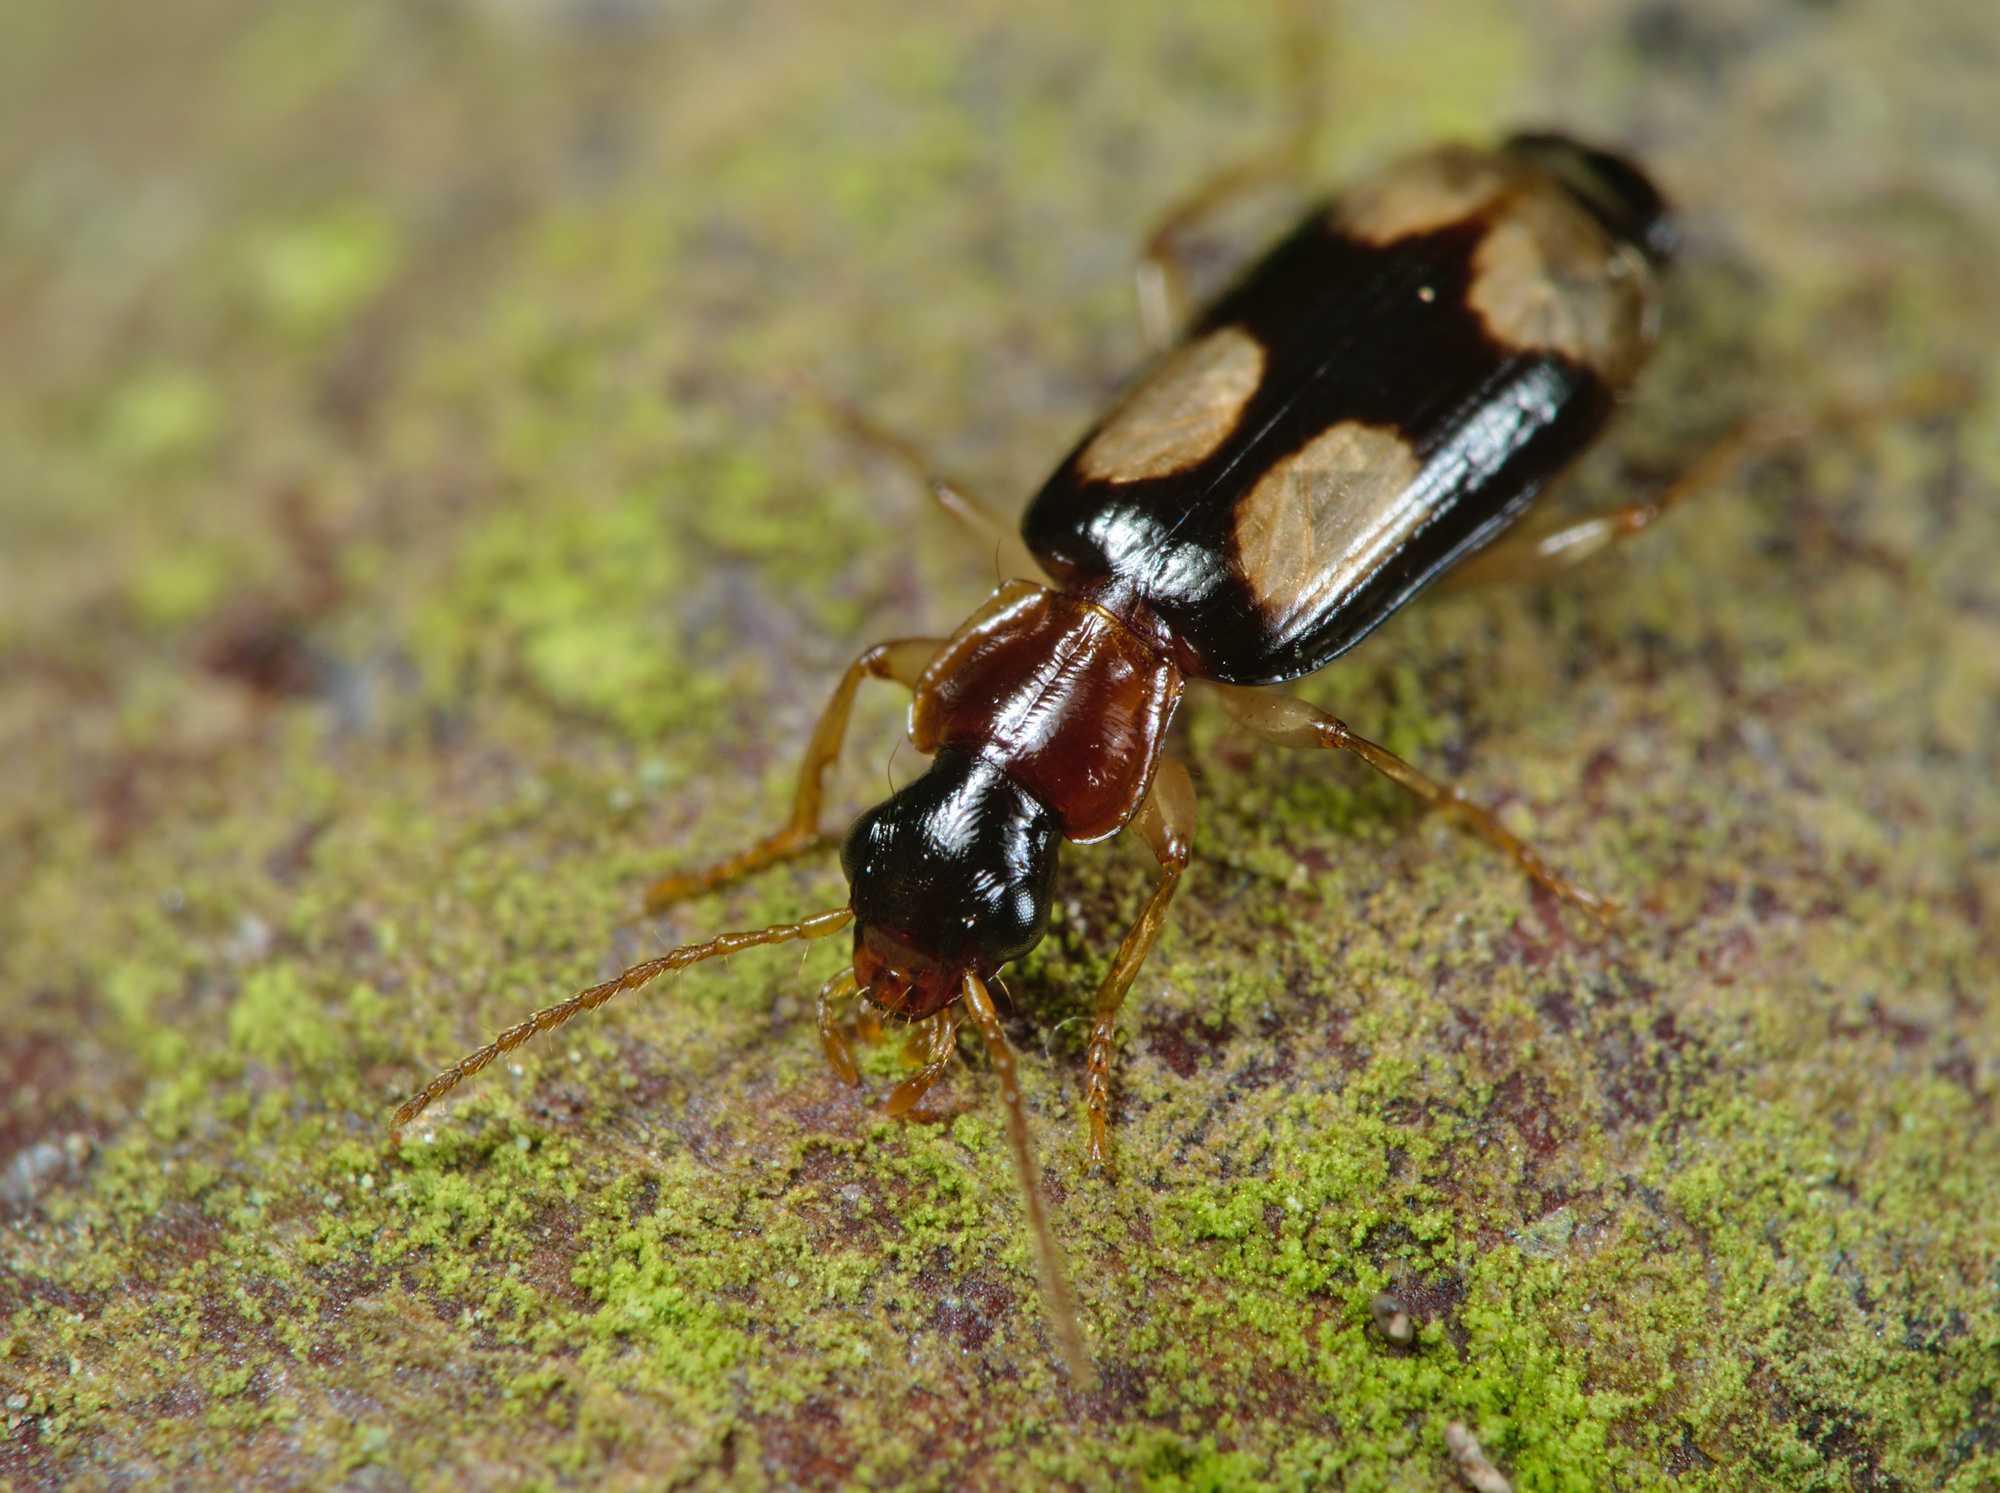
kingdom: Animalia
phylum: Arthropoda
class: Insecta
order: Coleoptera
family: Carabidae
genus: Dromius
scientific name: Dromius quadrimaculatus
